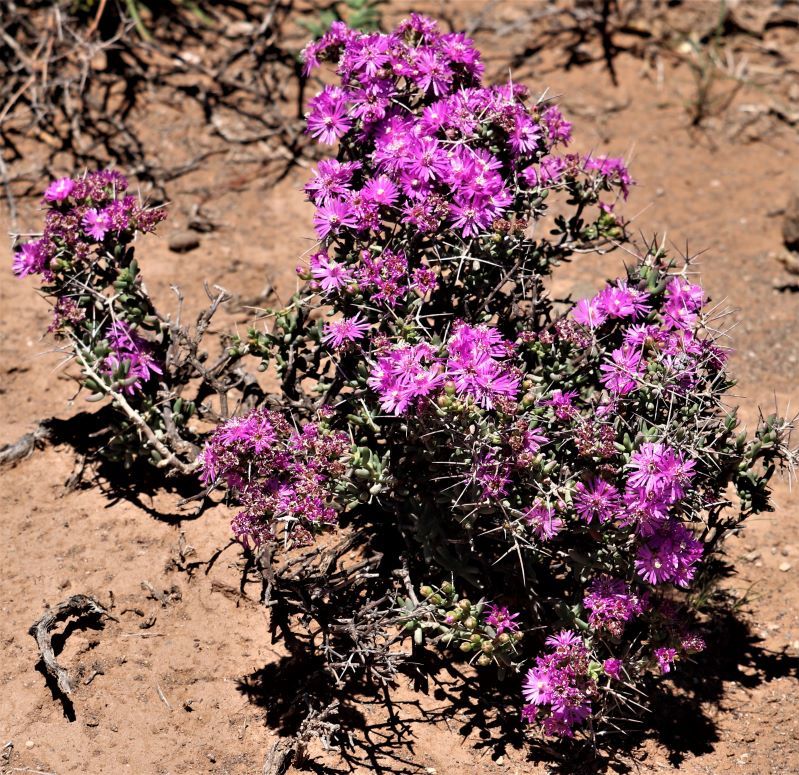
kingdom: Plantae
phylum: Tracheophyta
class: Magnoliopsida
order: Caryophyllales
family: Aizoaceae
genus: Ruschia
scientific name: Ruschia intricata
